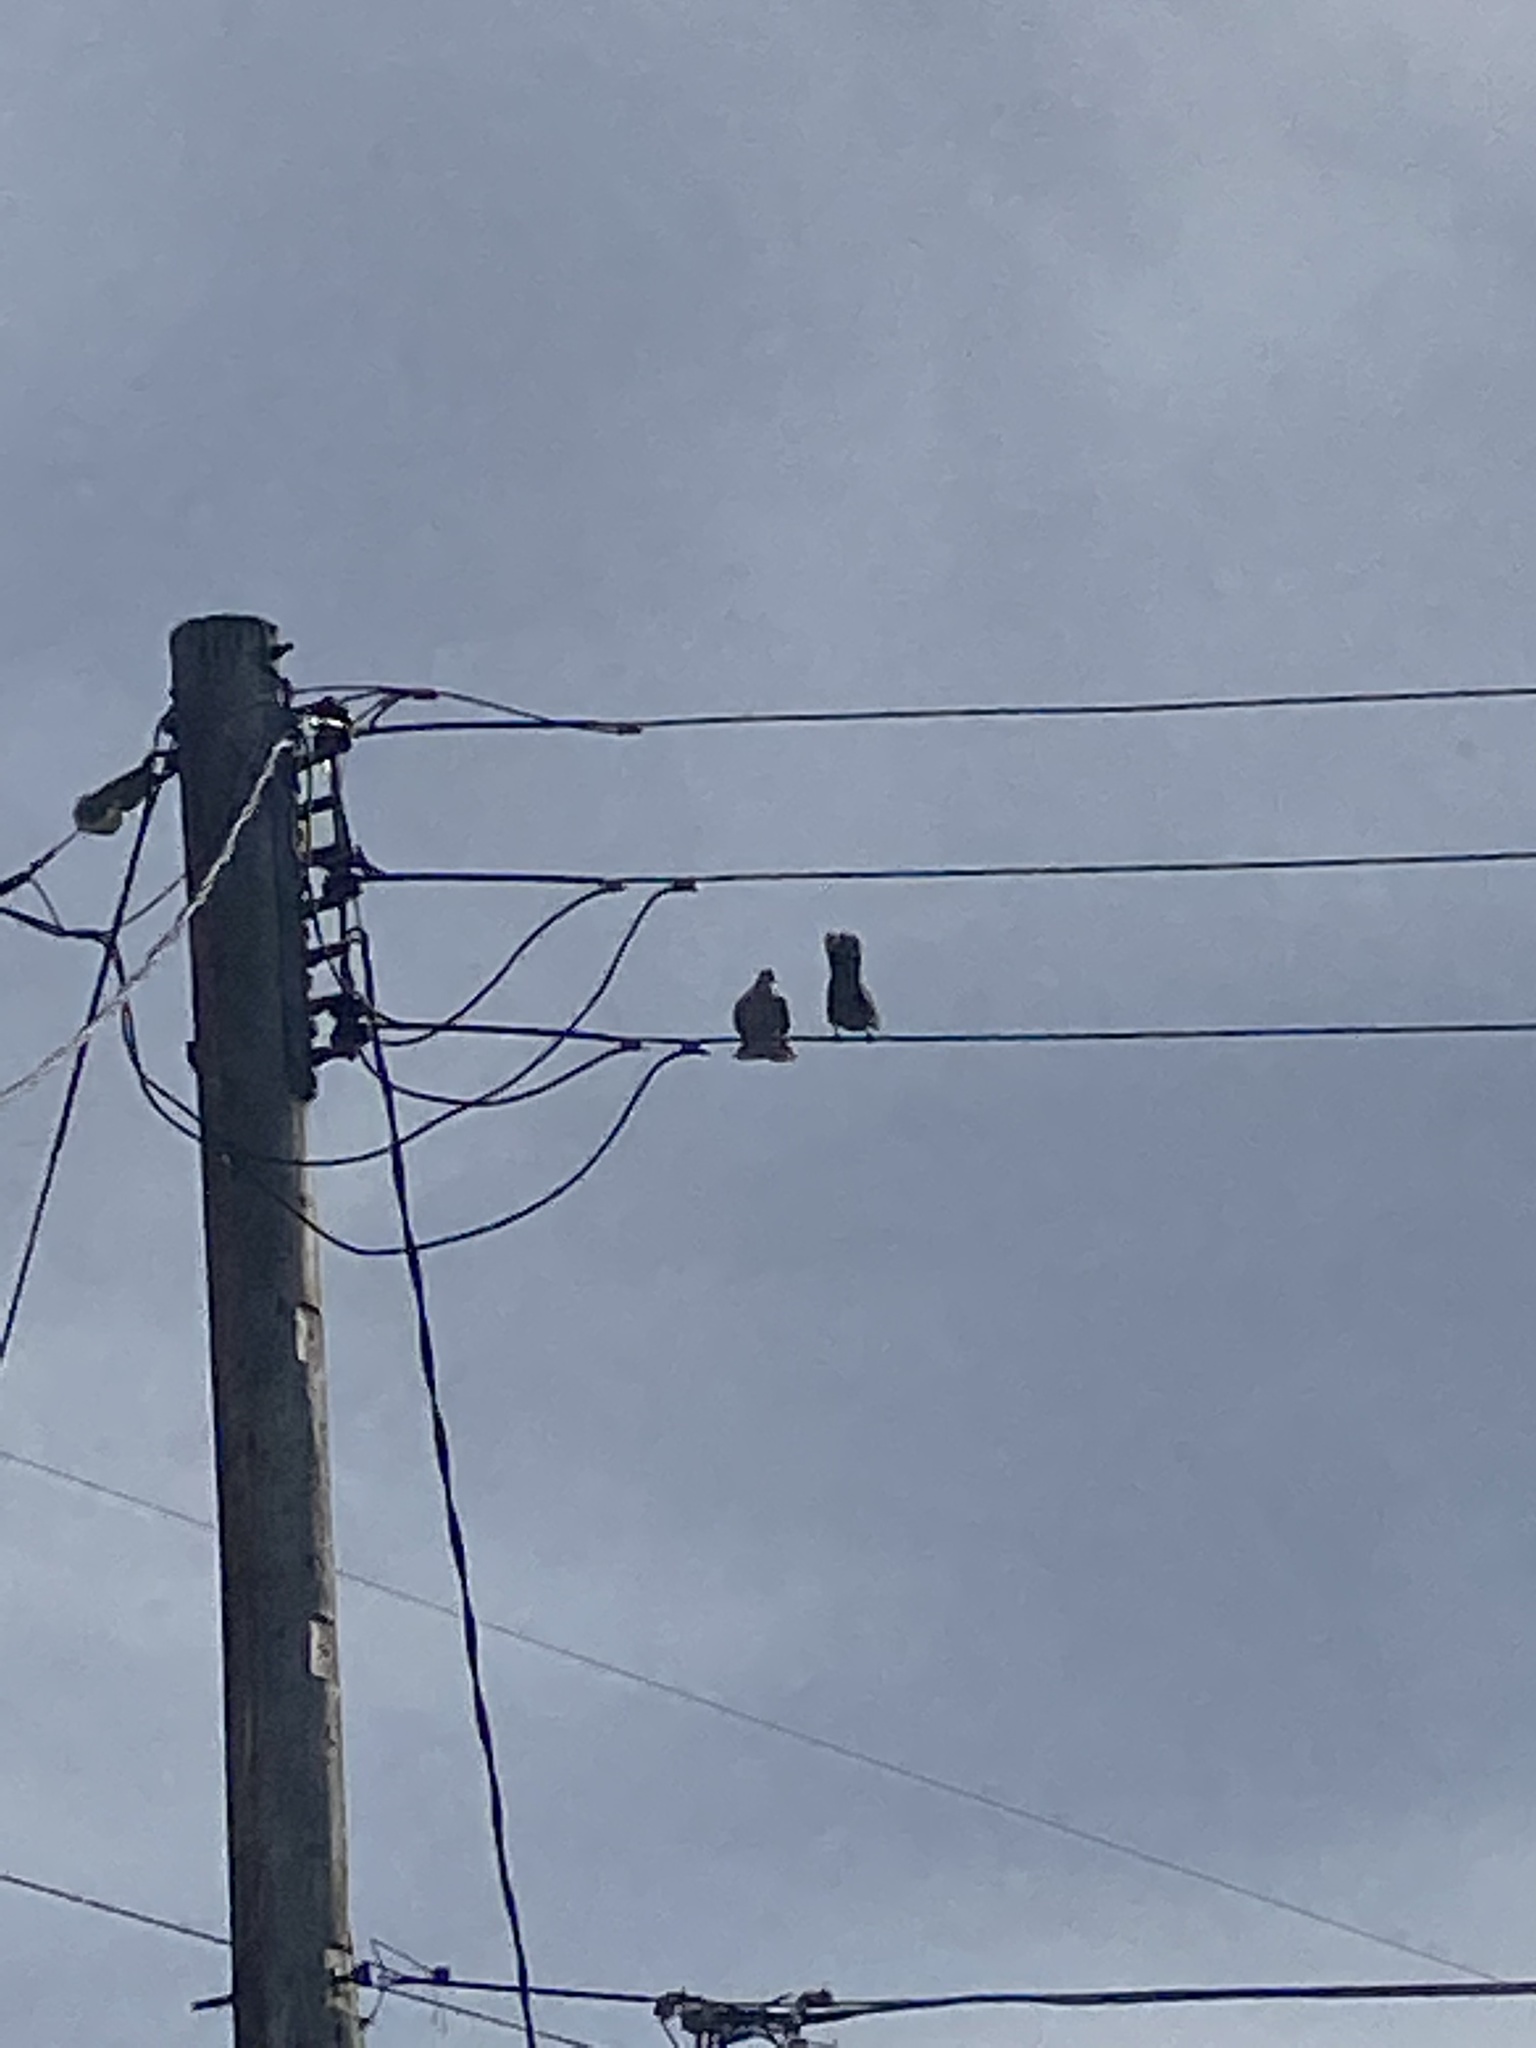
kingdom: Animalia
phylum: Chordata
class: Aves
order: Columbiformes
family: Columbidae
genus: Streptopelia
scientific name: Streptopelia decaocto
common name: Eurasian collared dove
